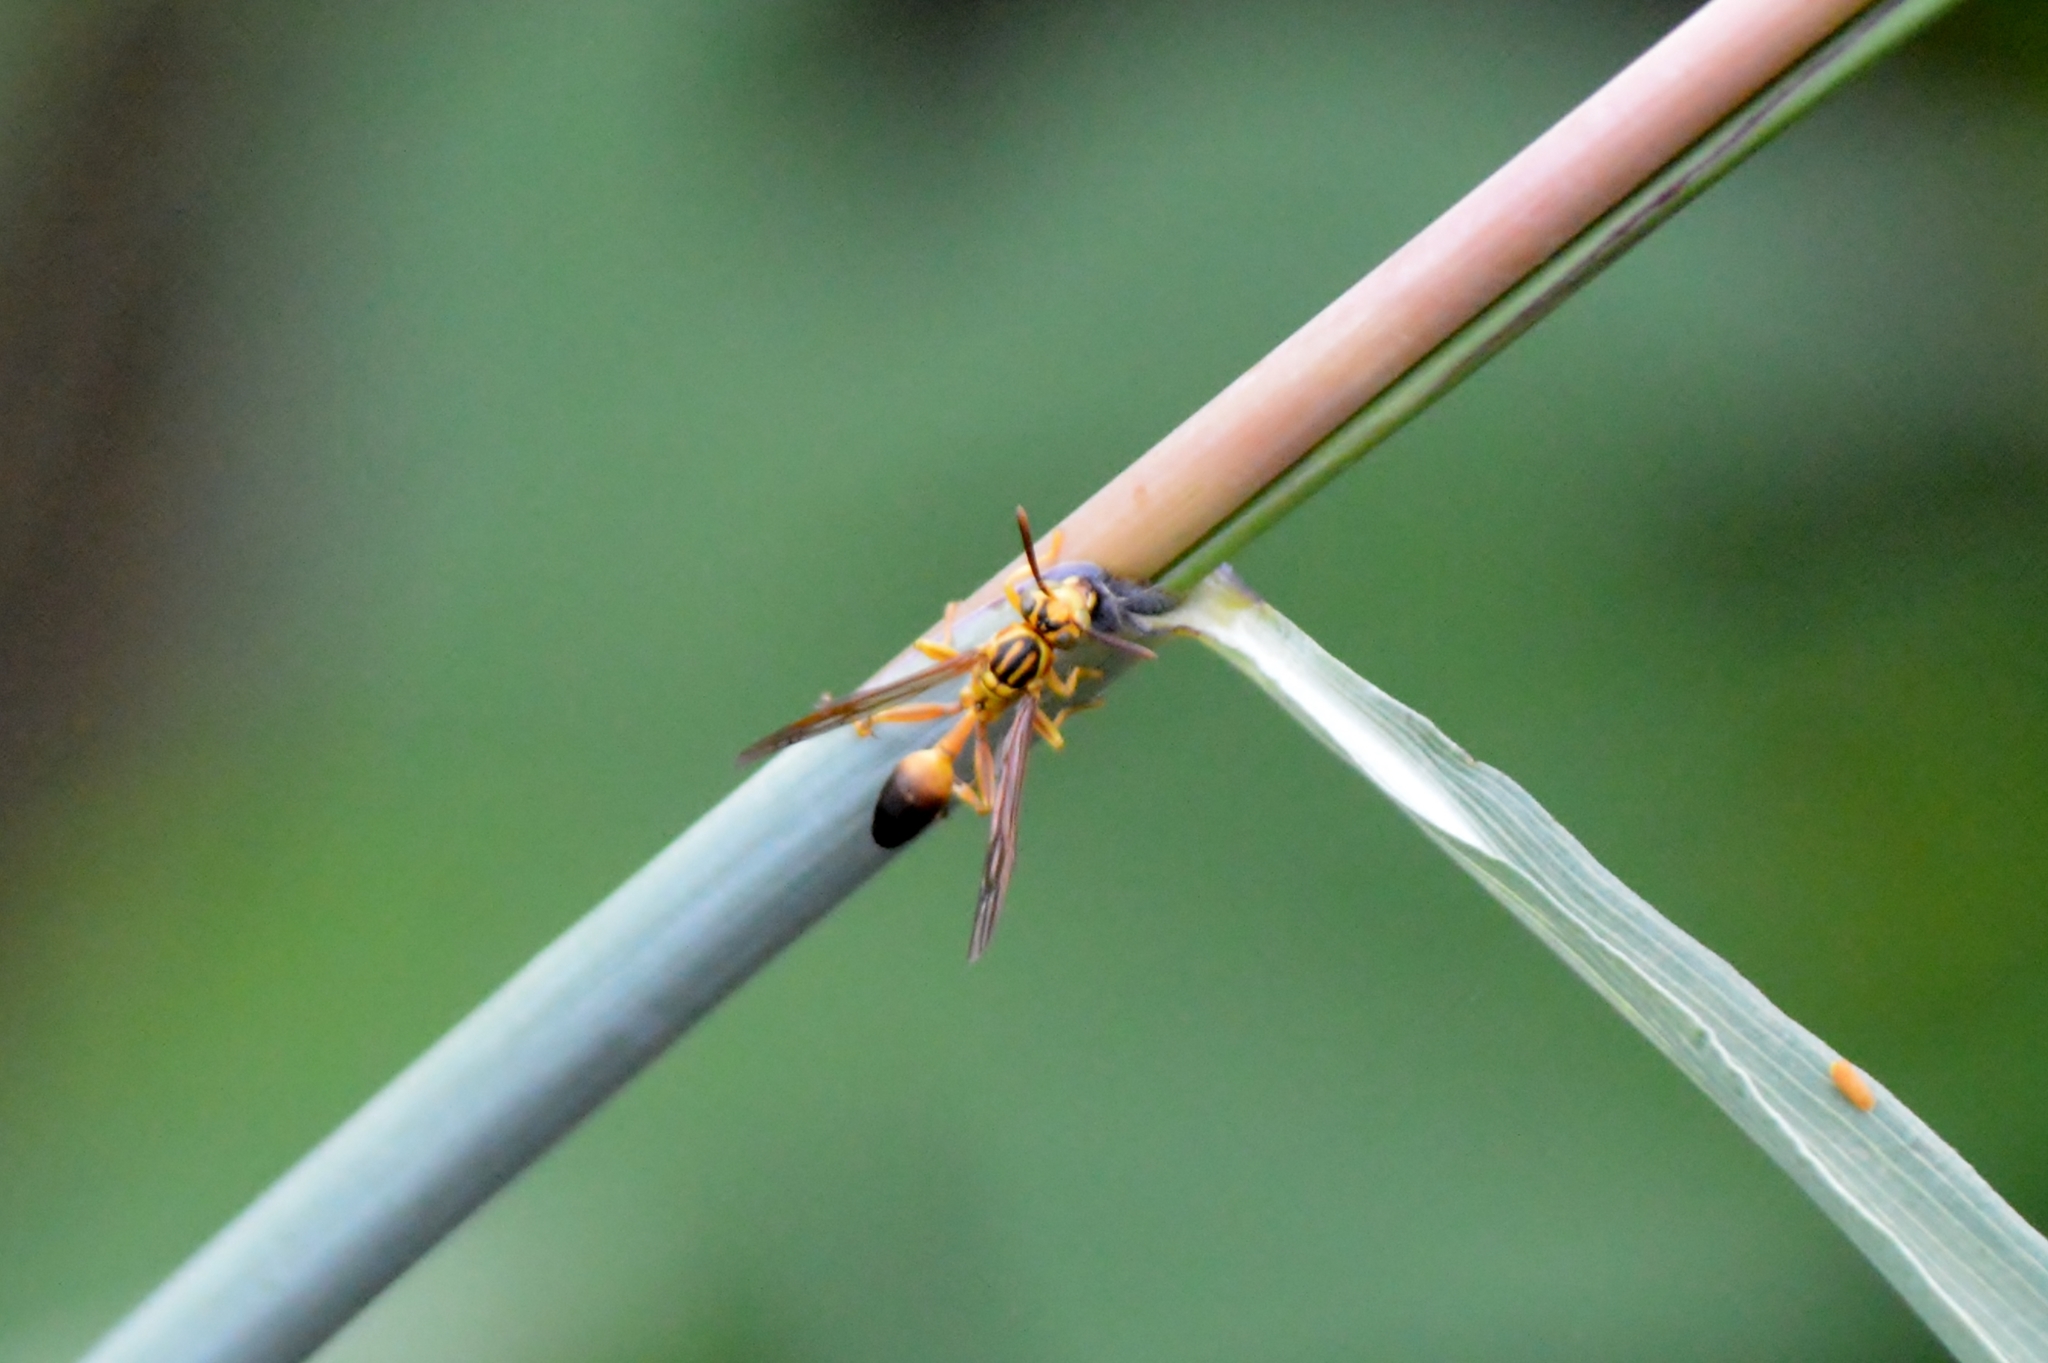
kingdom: Animalia
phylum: Arthropoda
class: Insecta
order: Hymenoptera
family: Vespidae
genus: Mischocyttarus
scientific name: Mischocyttarus cerberus
